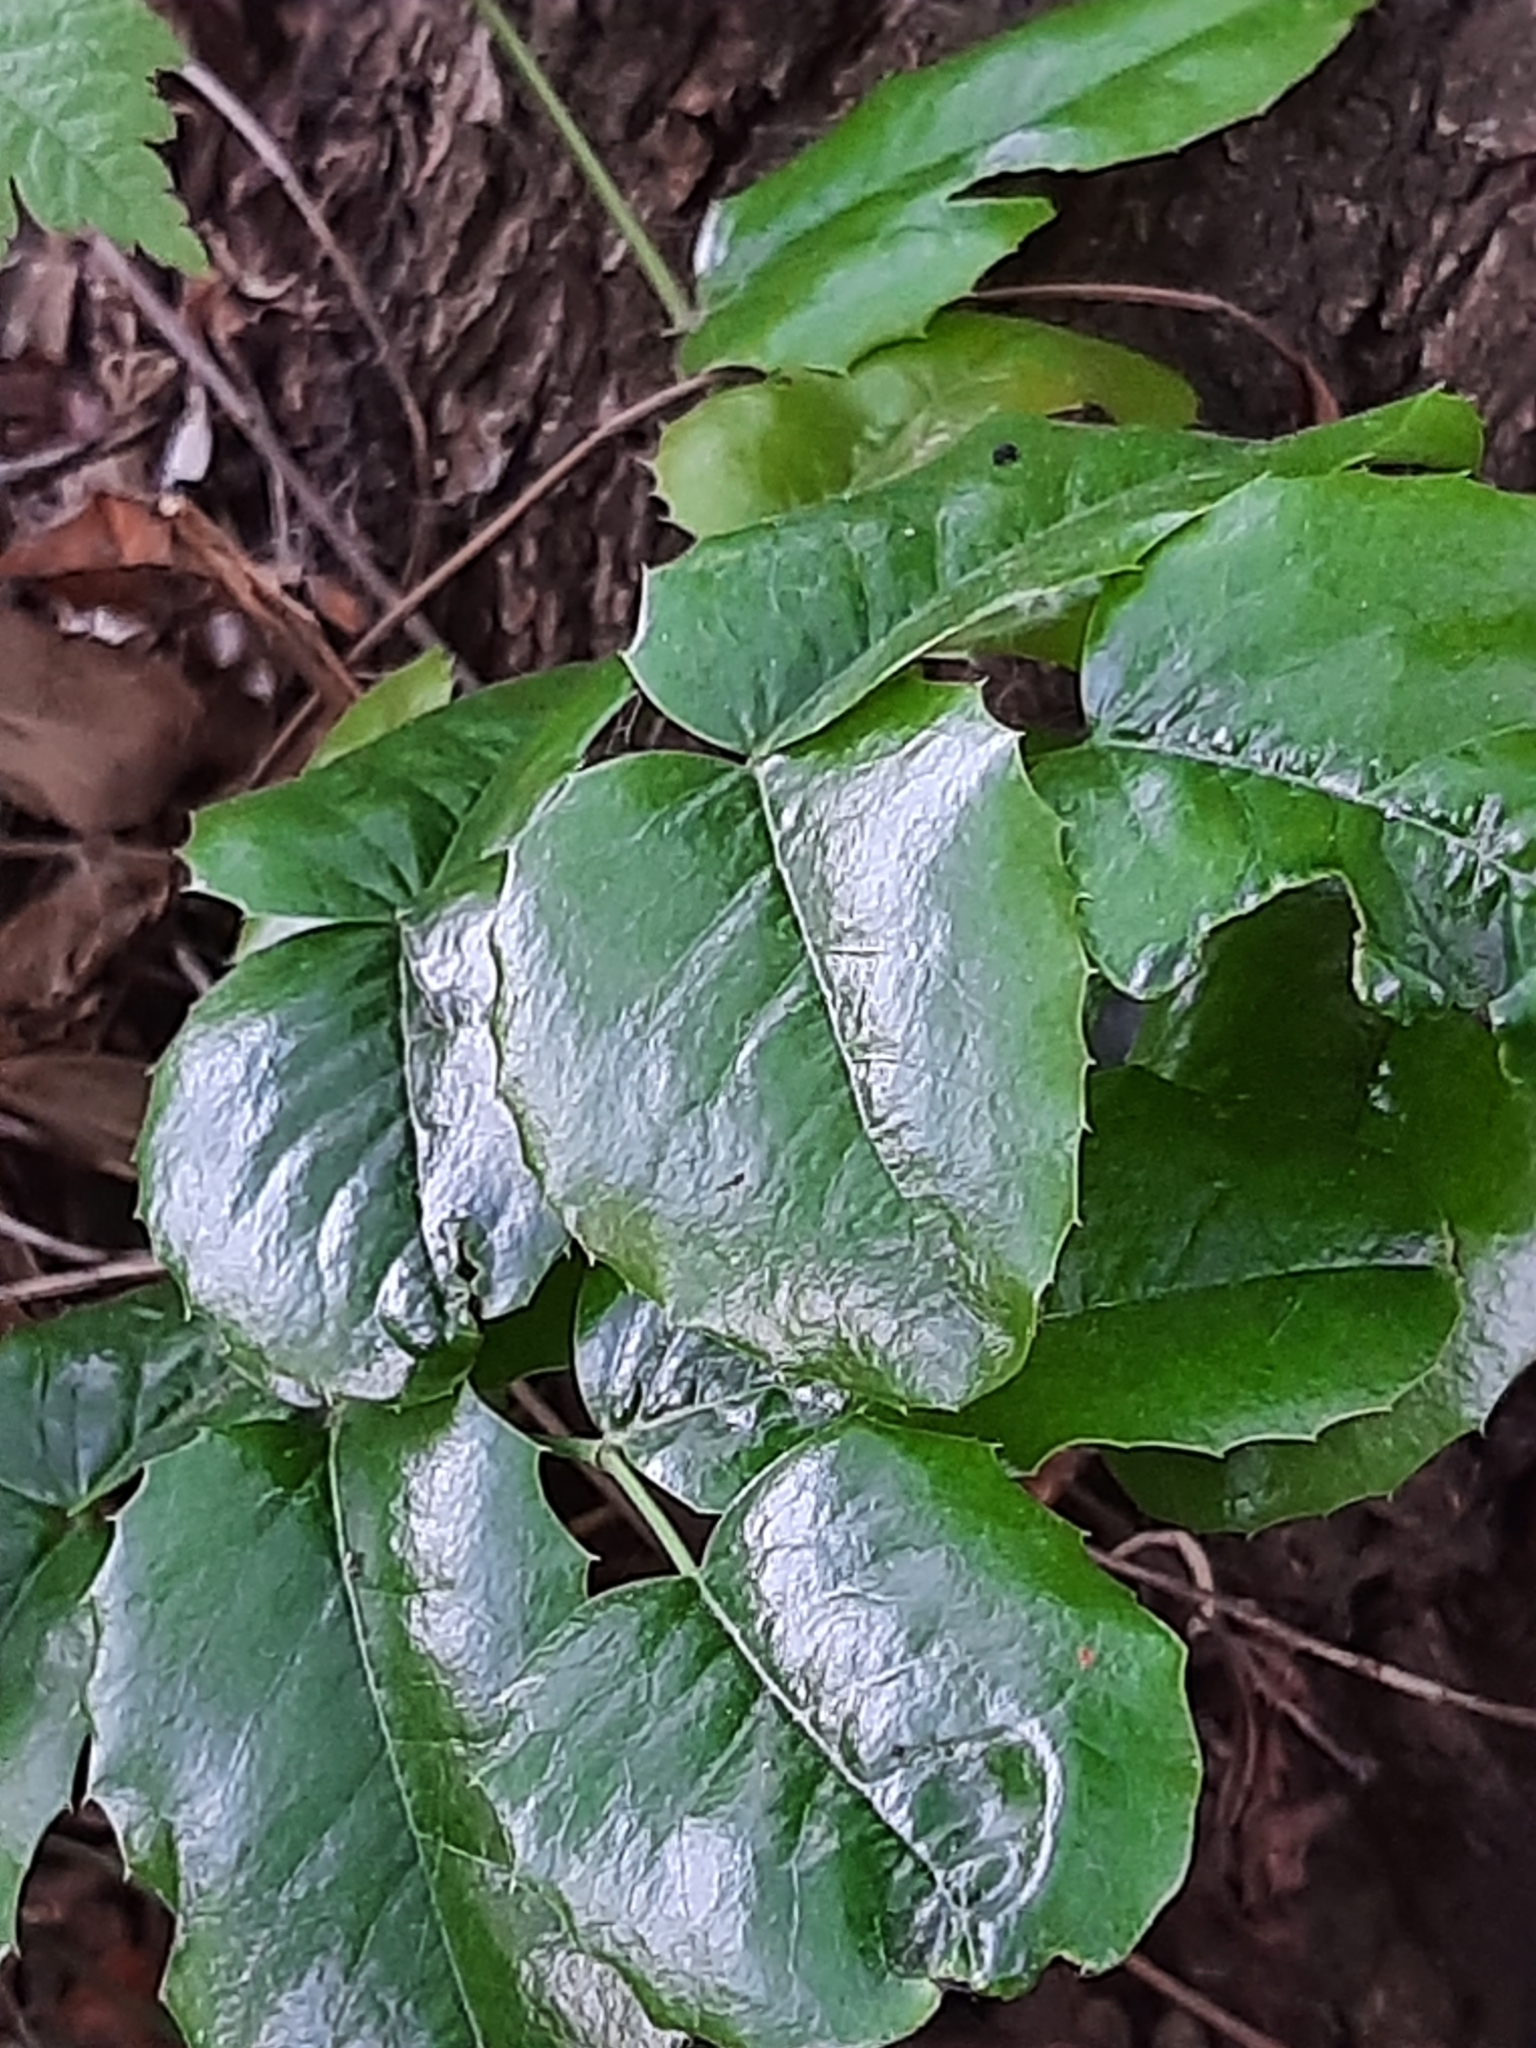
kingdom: Plantae
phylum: Tracheophyta
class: Magnoliopsida
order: Ranunculales
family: Berberidaceae
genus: Mahonia
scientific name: Mahonia aquifolium
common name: Oregon-grape
